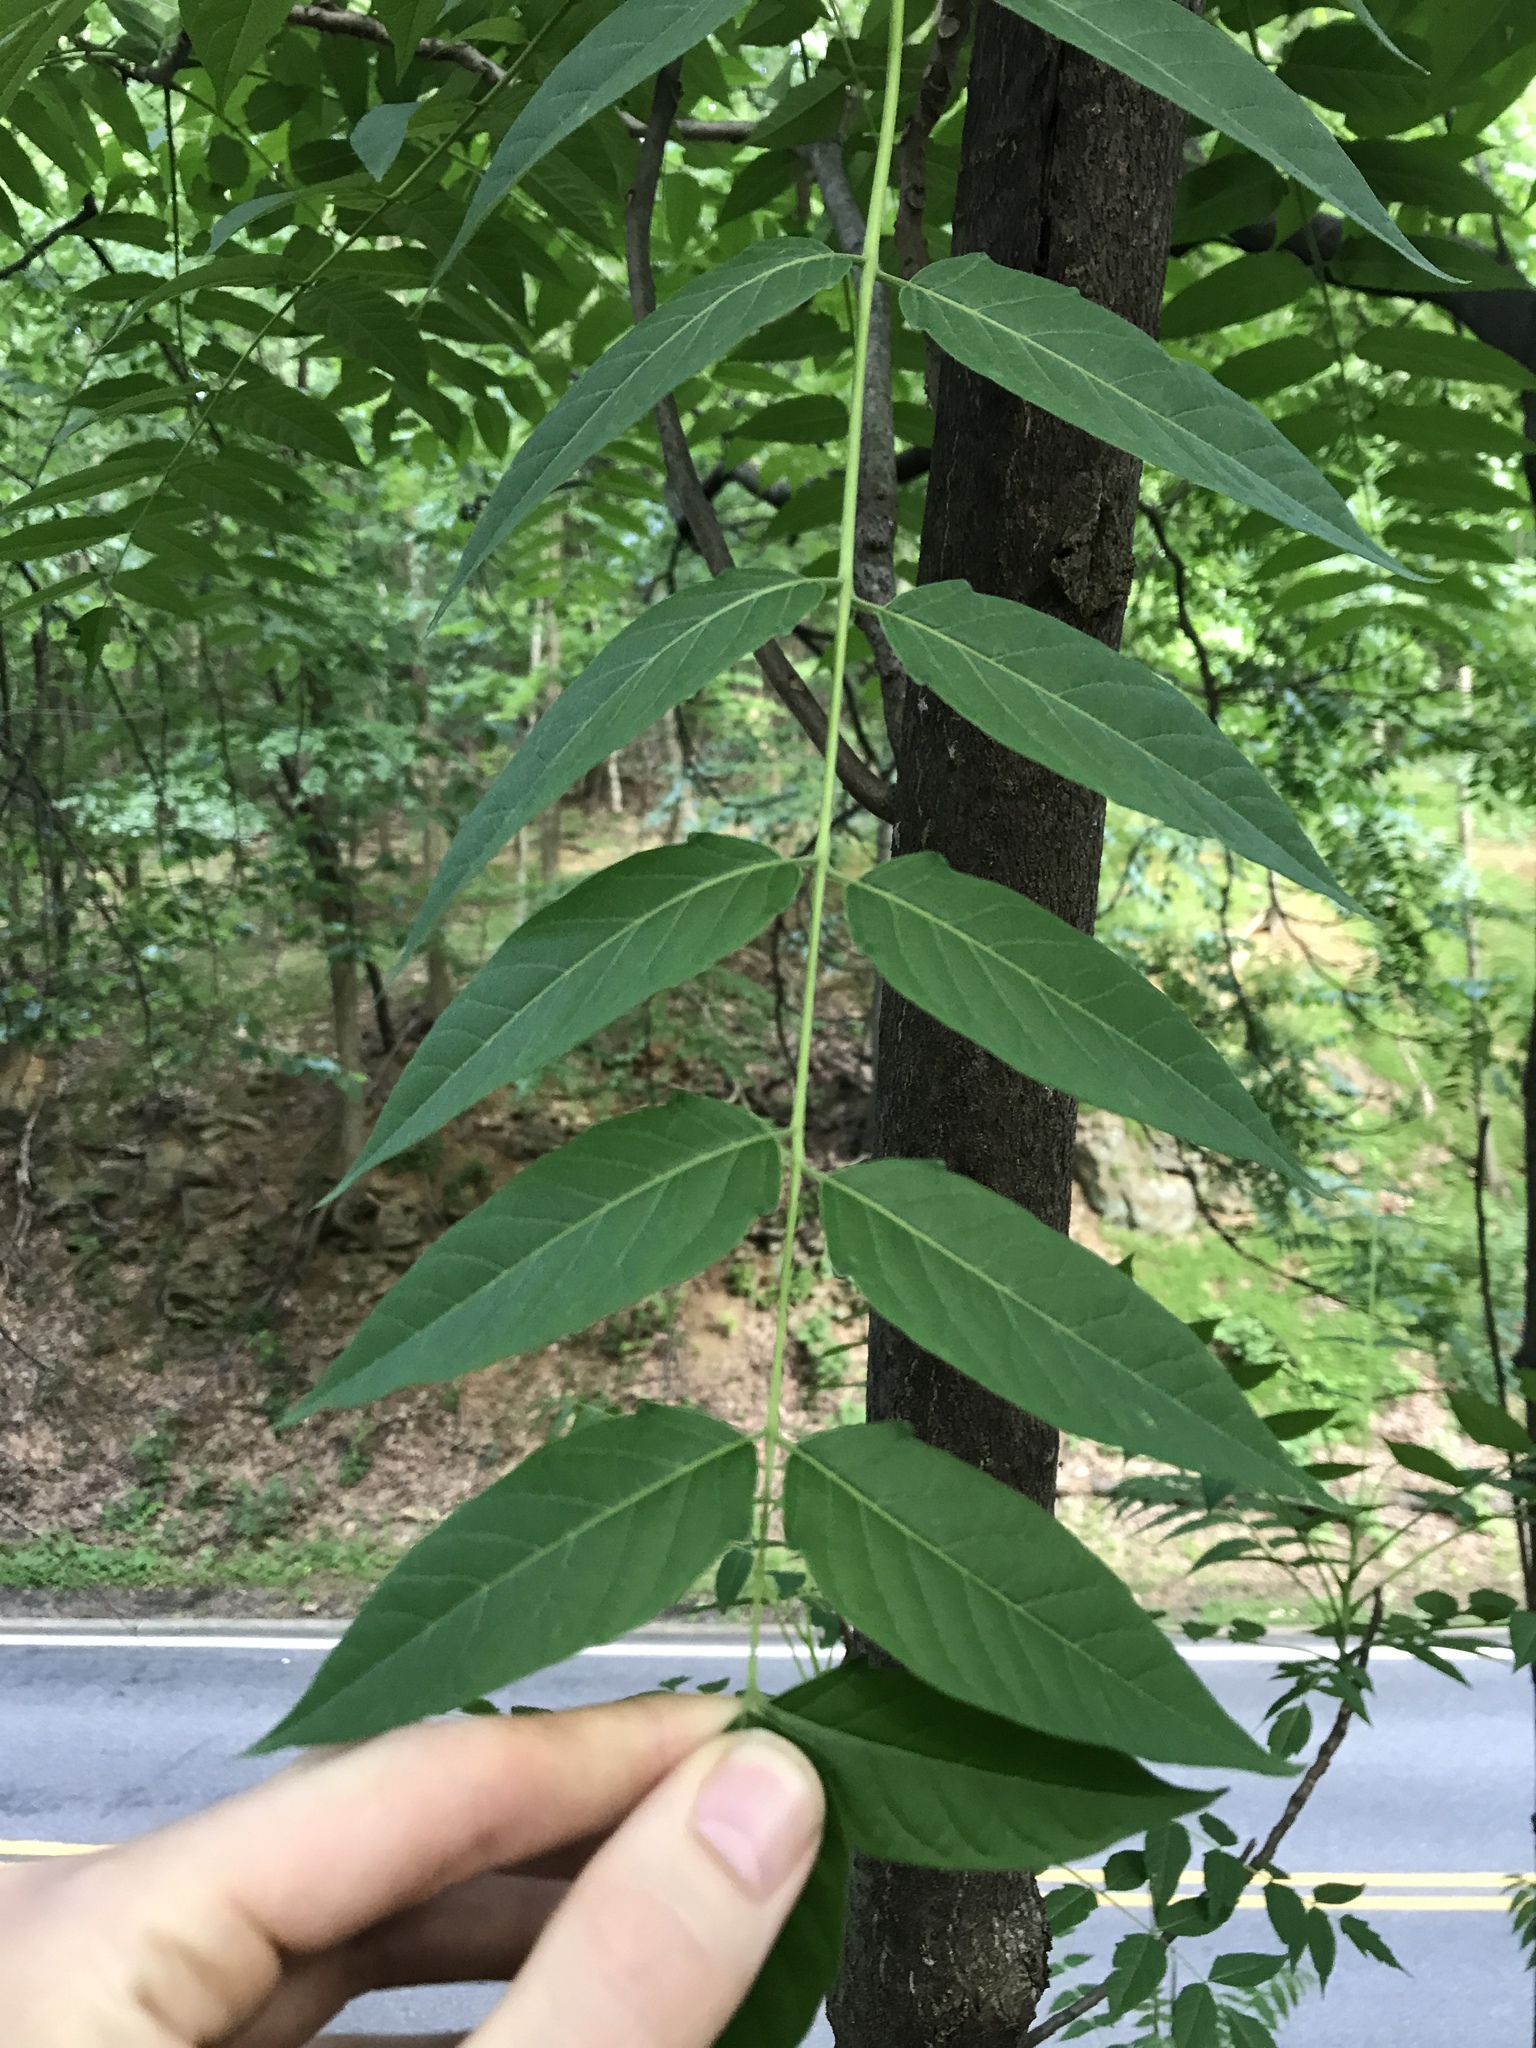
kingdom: Plantae
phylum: Tracheophyta
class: Magnoliopsida
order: Sapindales
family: Simaroubaceae
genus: Ailanthus
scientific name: Ailanthus altissima
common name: Tree-of-heaven
